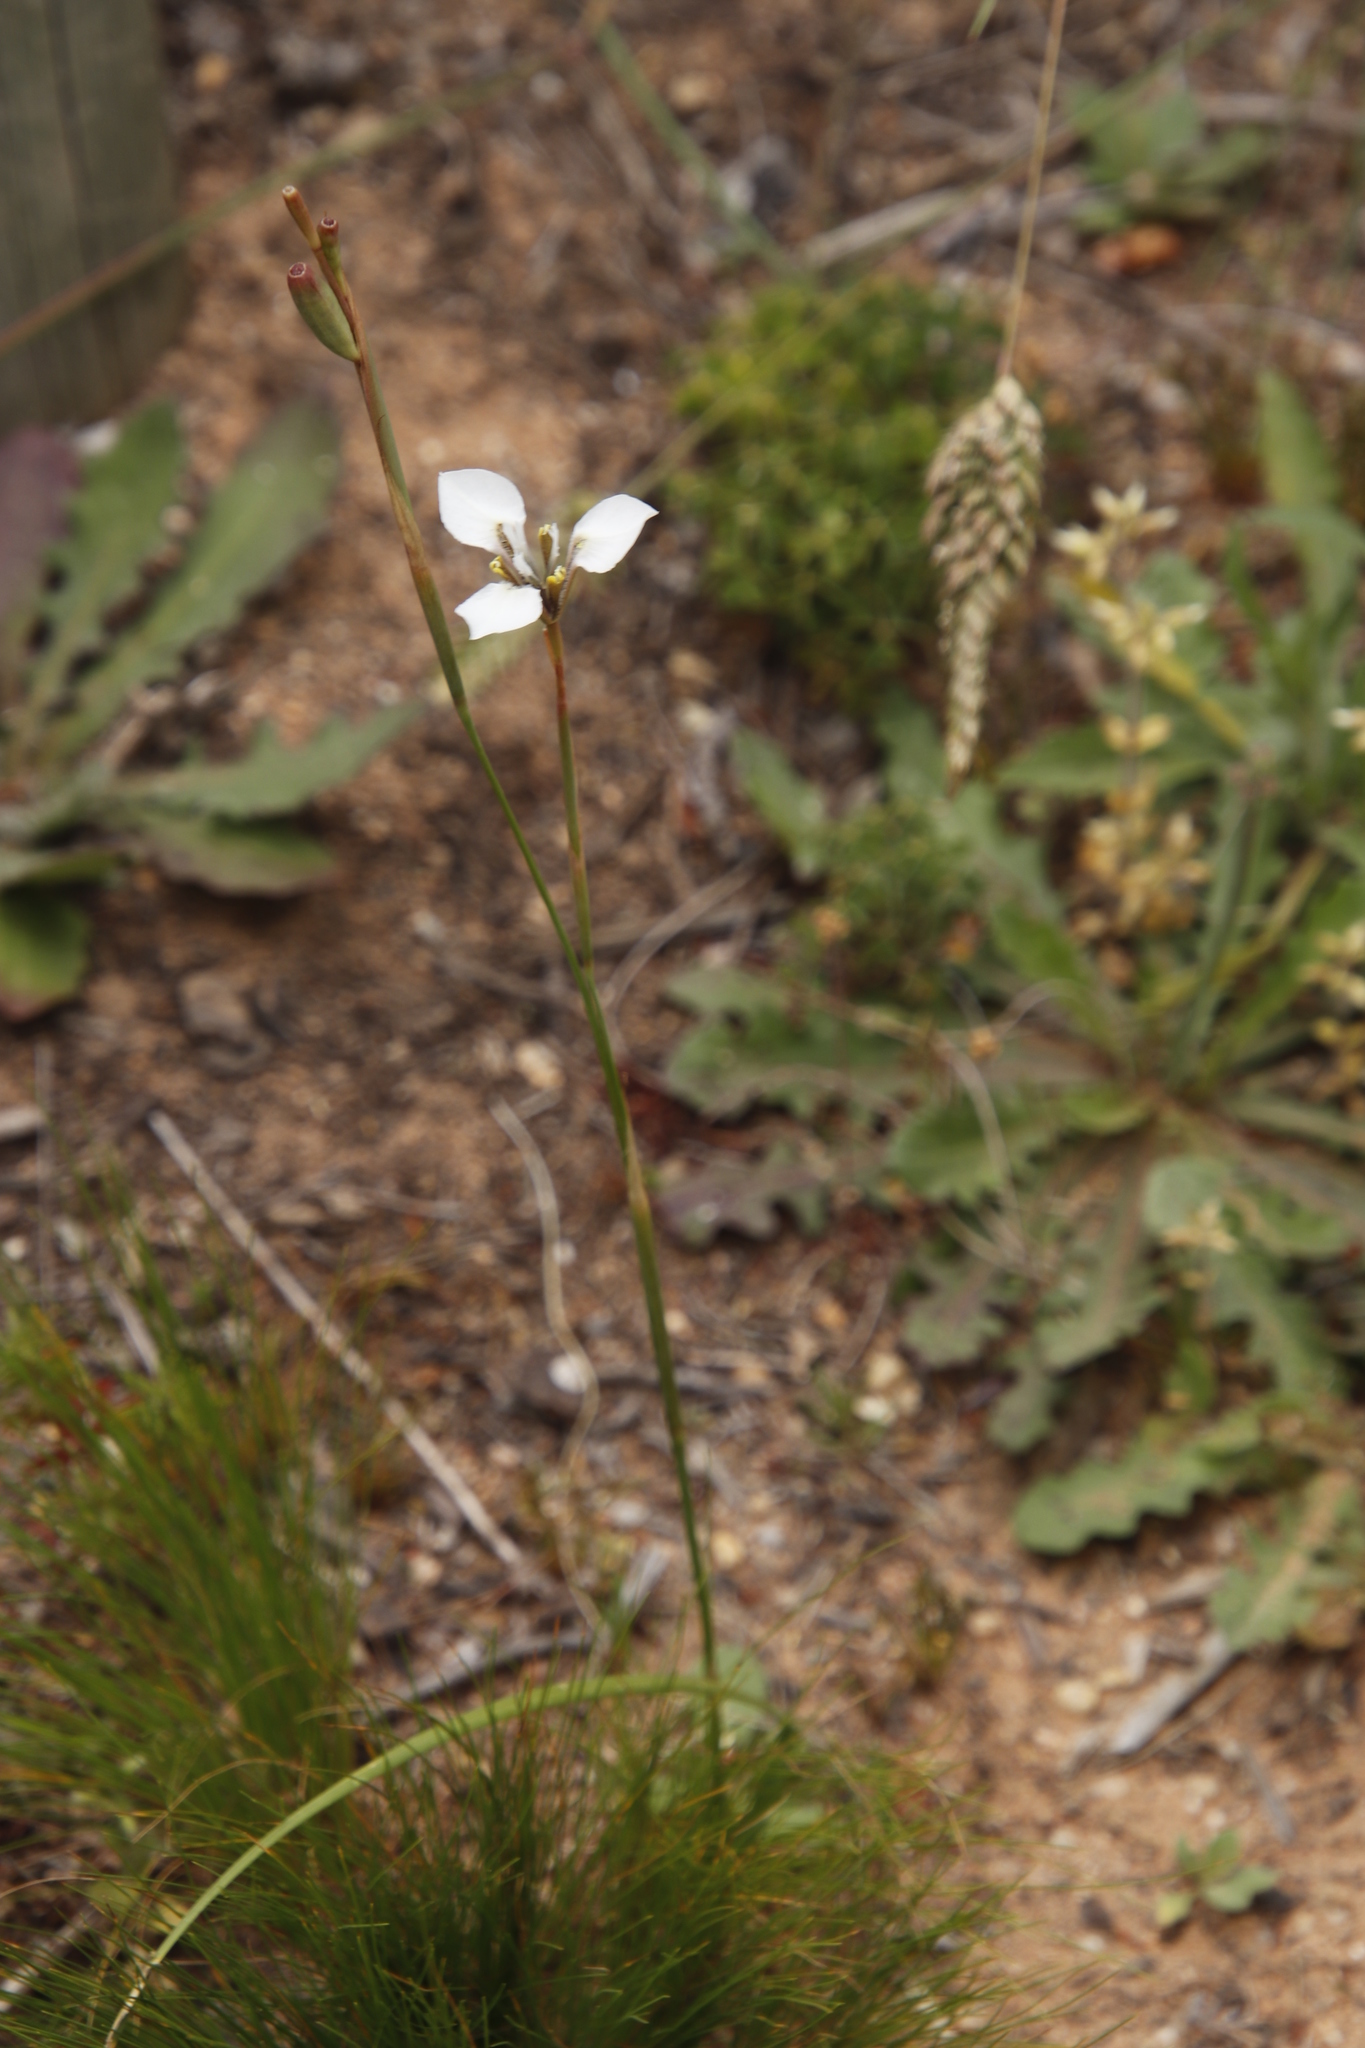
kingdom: Plantae
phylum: Tracheophyta
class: Liliopsida
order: Asparagales
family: Iridaceae
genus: Moraea
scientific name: Moraea tricuspidata
